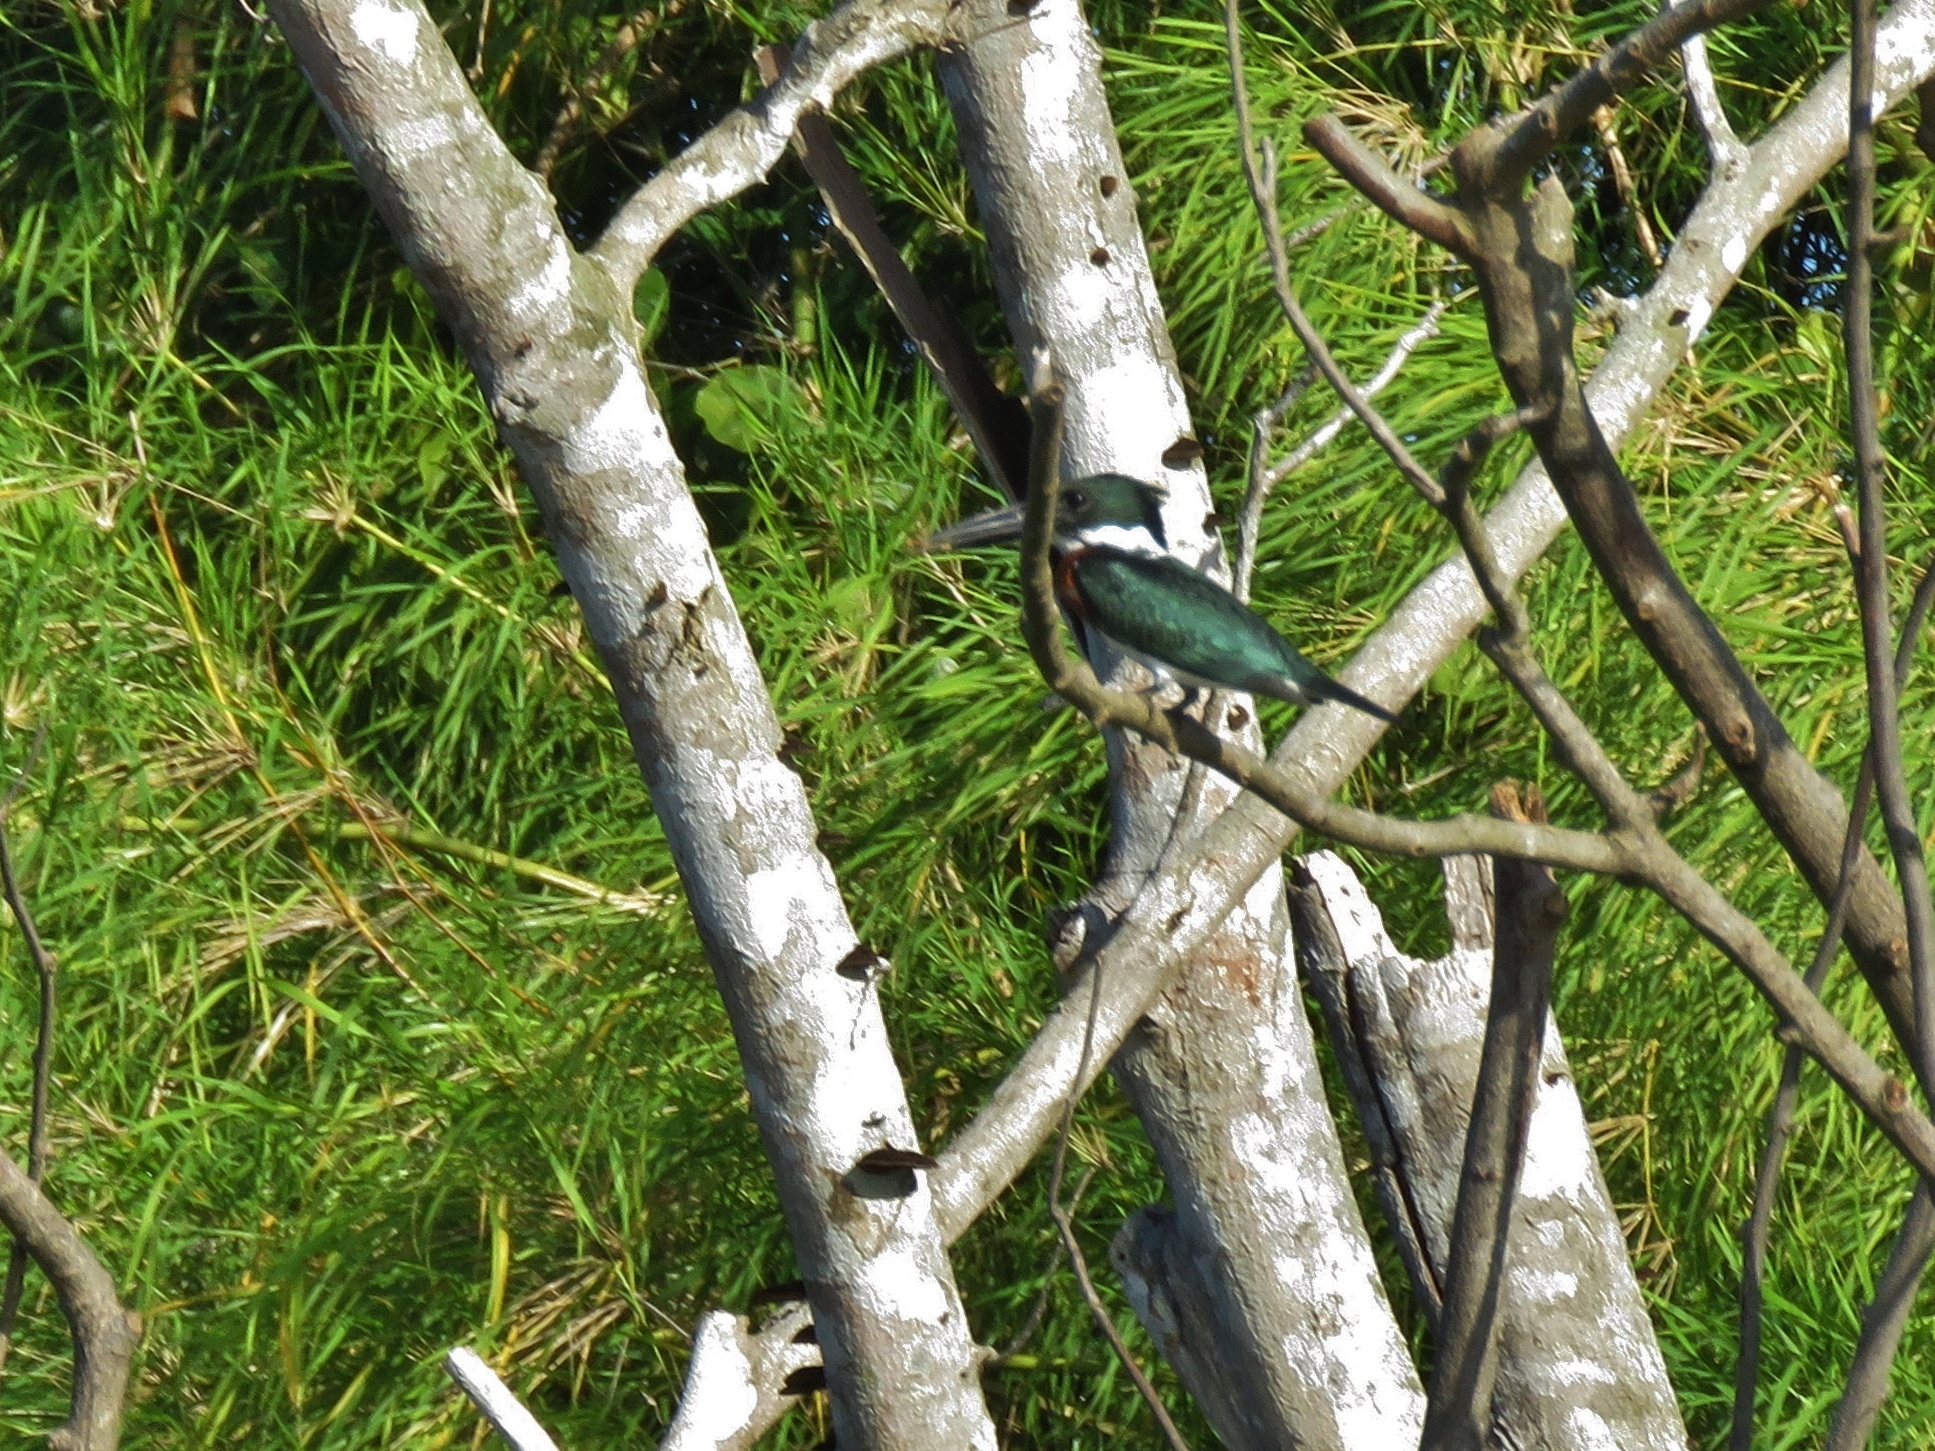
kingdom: Animalia
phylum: Chordata
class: Aves
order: Coraciiformes
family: Alcedinidae
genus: Chloroceryle
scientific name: Chloroceryle amazona
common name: Amazon kingfisher
